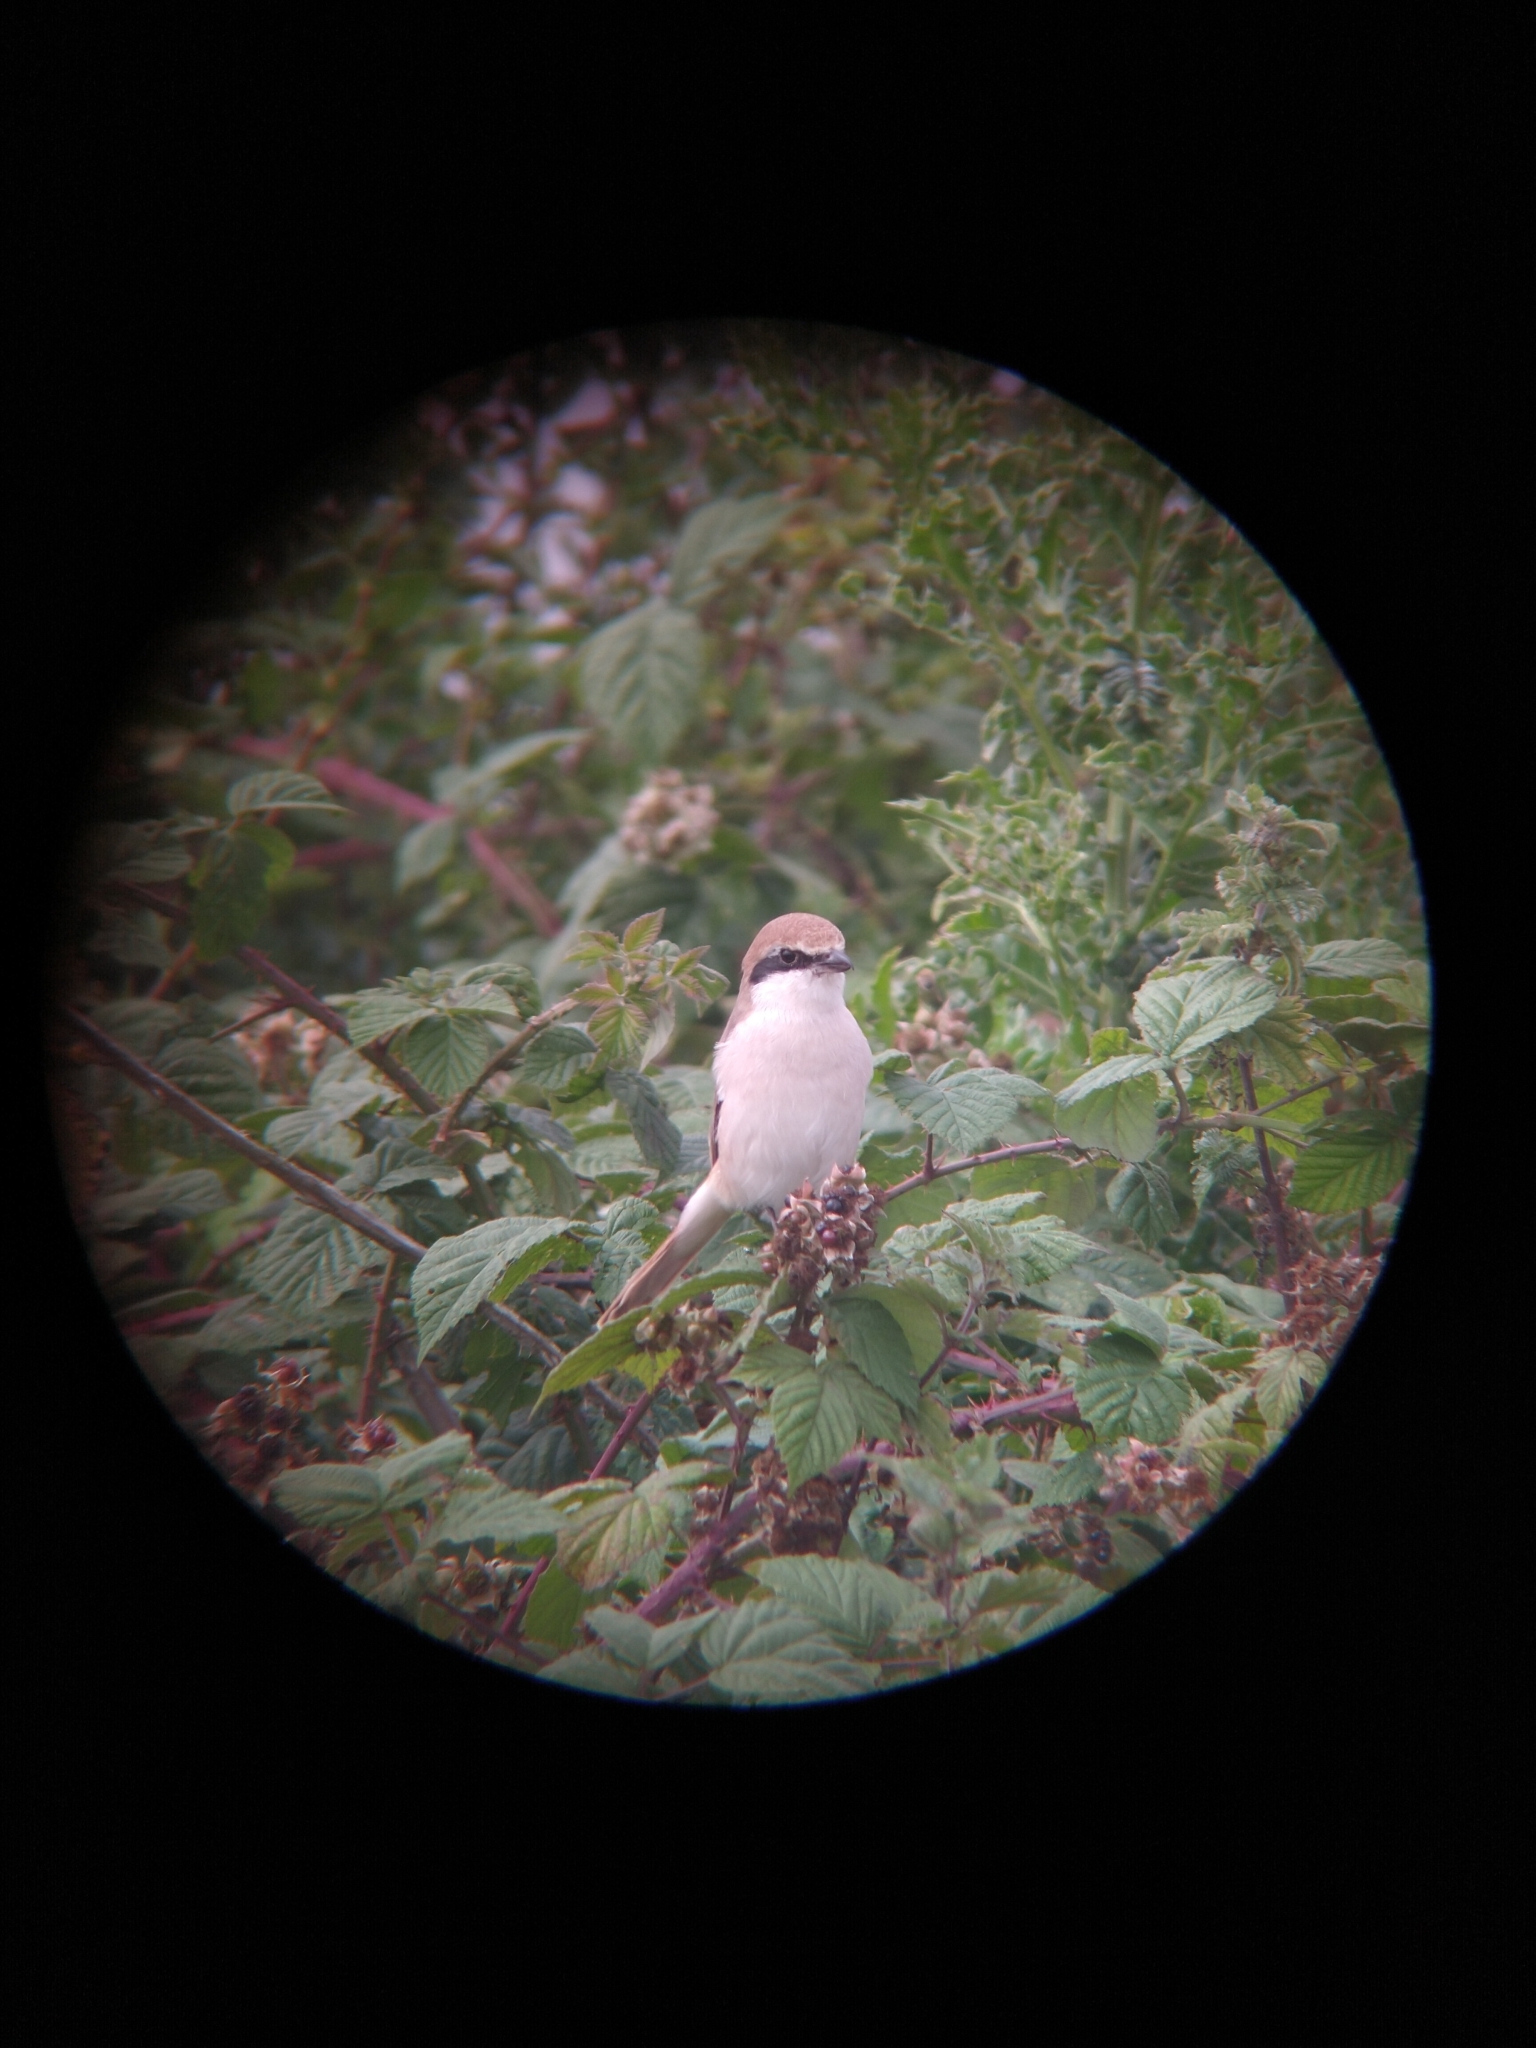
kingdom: Animalia
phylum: Chordata
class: Aves
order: Passeriformes
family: Laniidae
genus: Lanius
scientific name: Lanius phoenicuroides
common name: Red-tailed shrike
